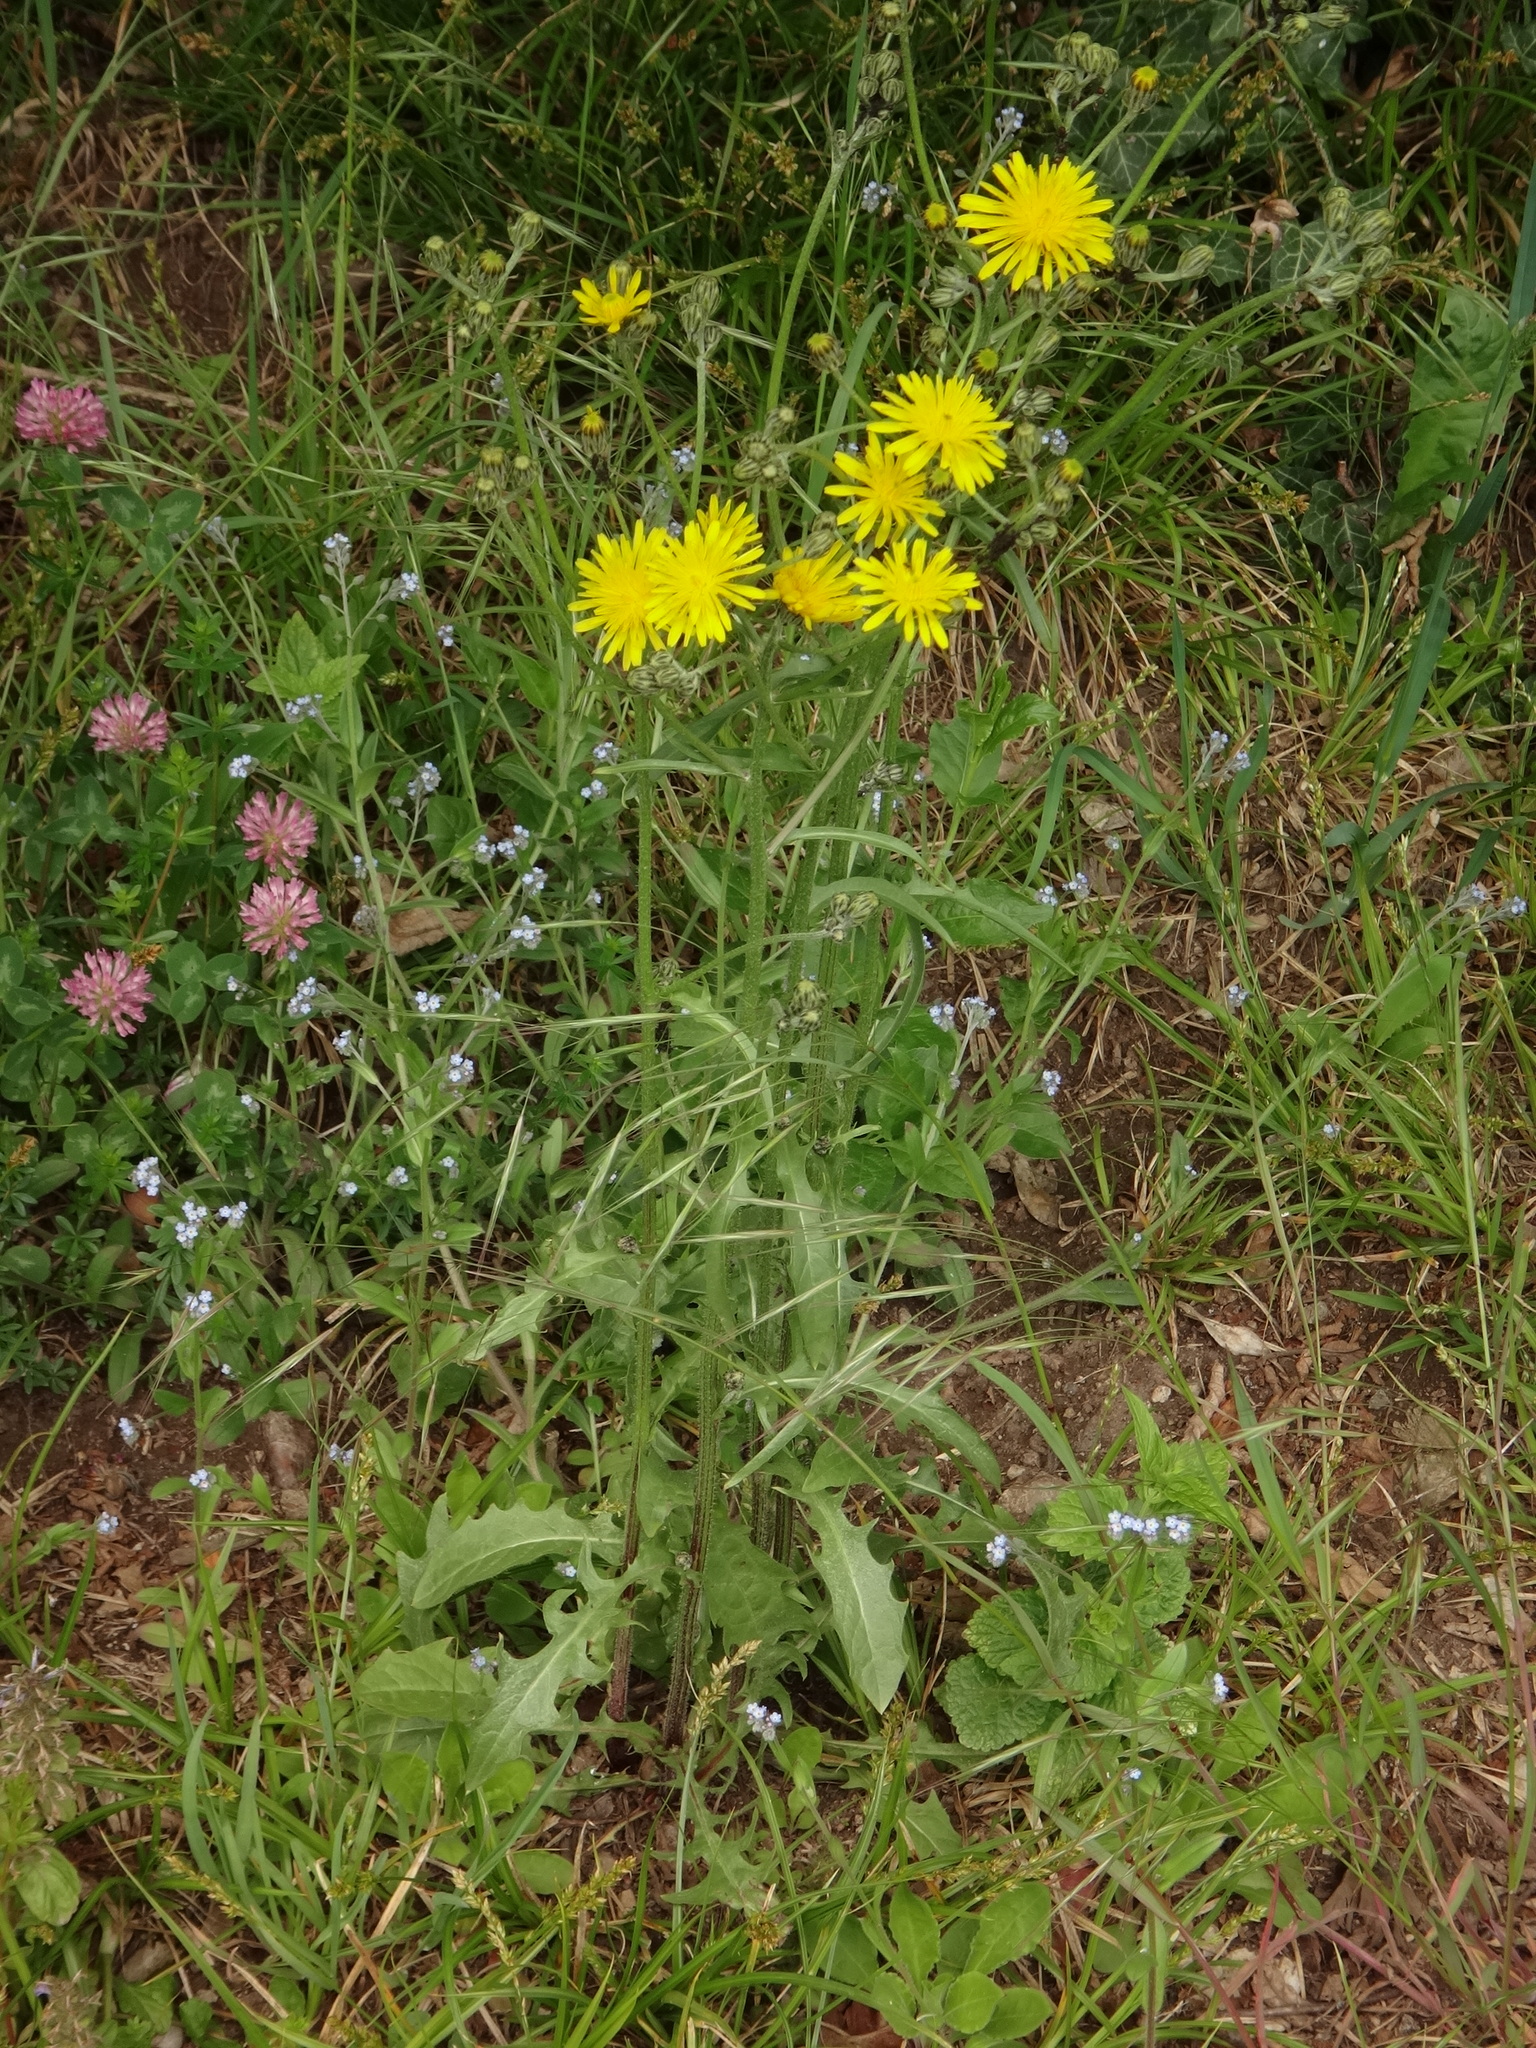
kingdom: Plantae
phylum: Tracheophyta
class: Magnoliopsida
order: Asterales
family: Asteraceae
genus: Crepis
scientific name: Crepis biennis
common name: Rough hawk's-beard
